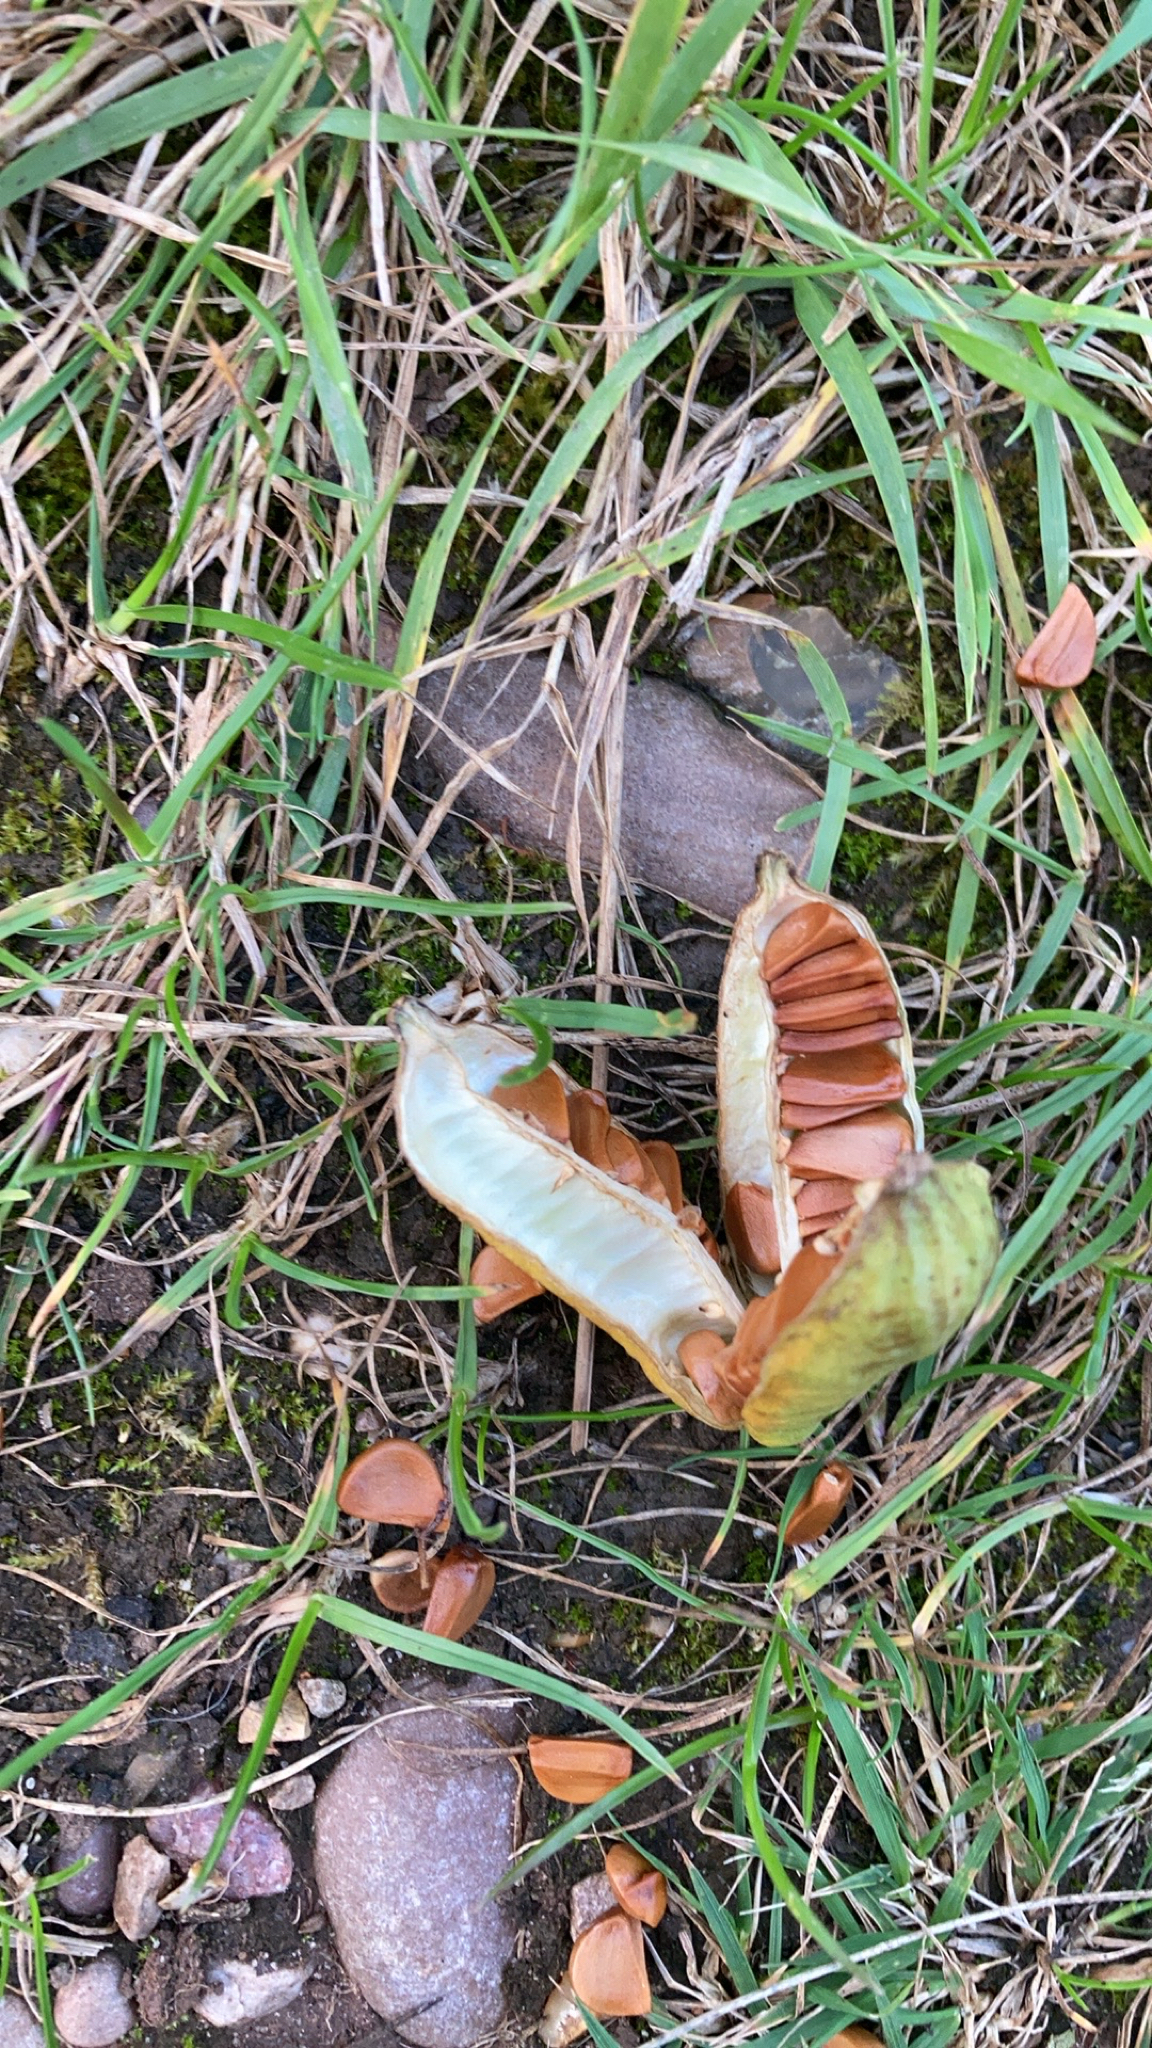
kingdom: Plantae
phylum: Tracheophyta
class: Liliopsida
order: Asparagales
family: Iridaceae
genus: Iris
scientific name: Iris pseudacorus
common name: Yellow flag
